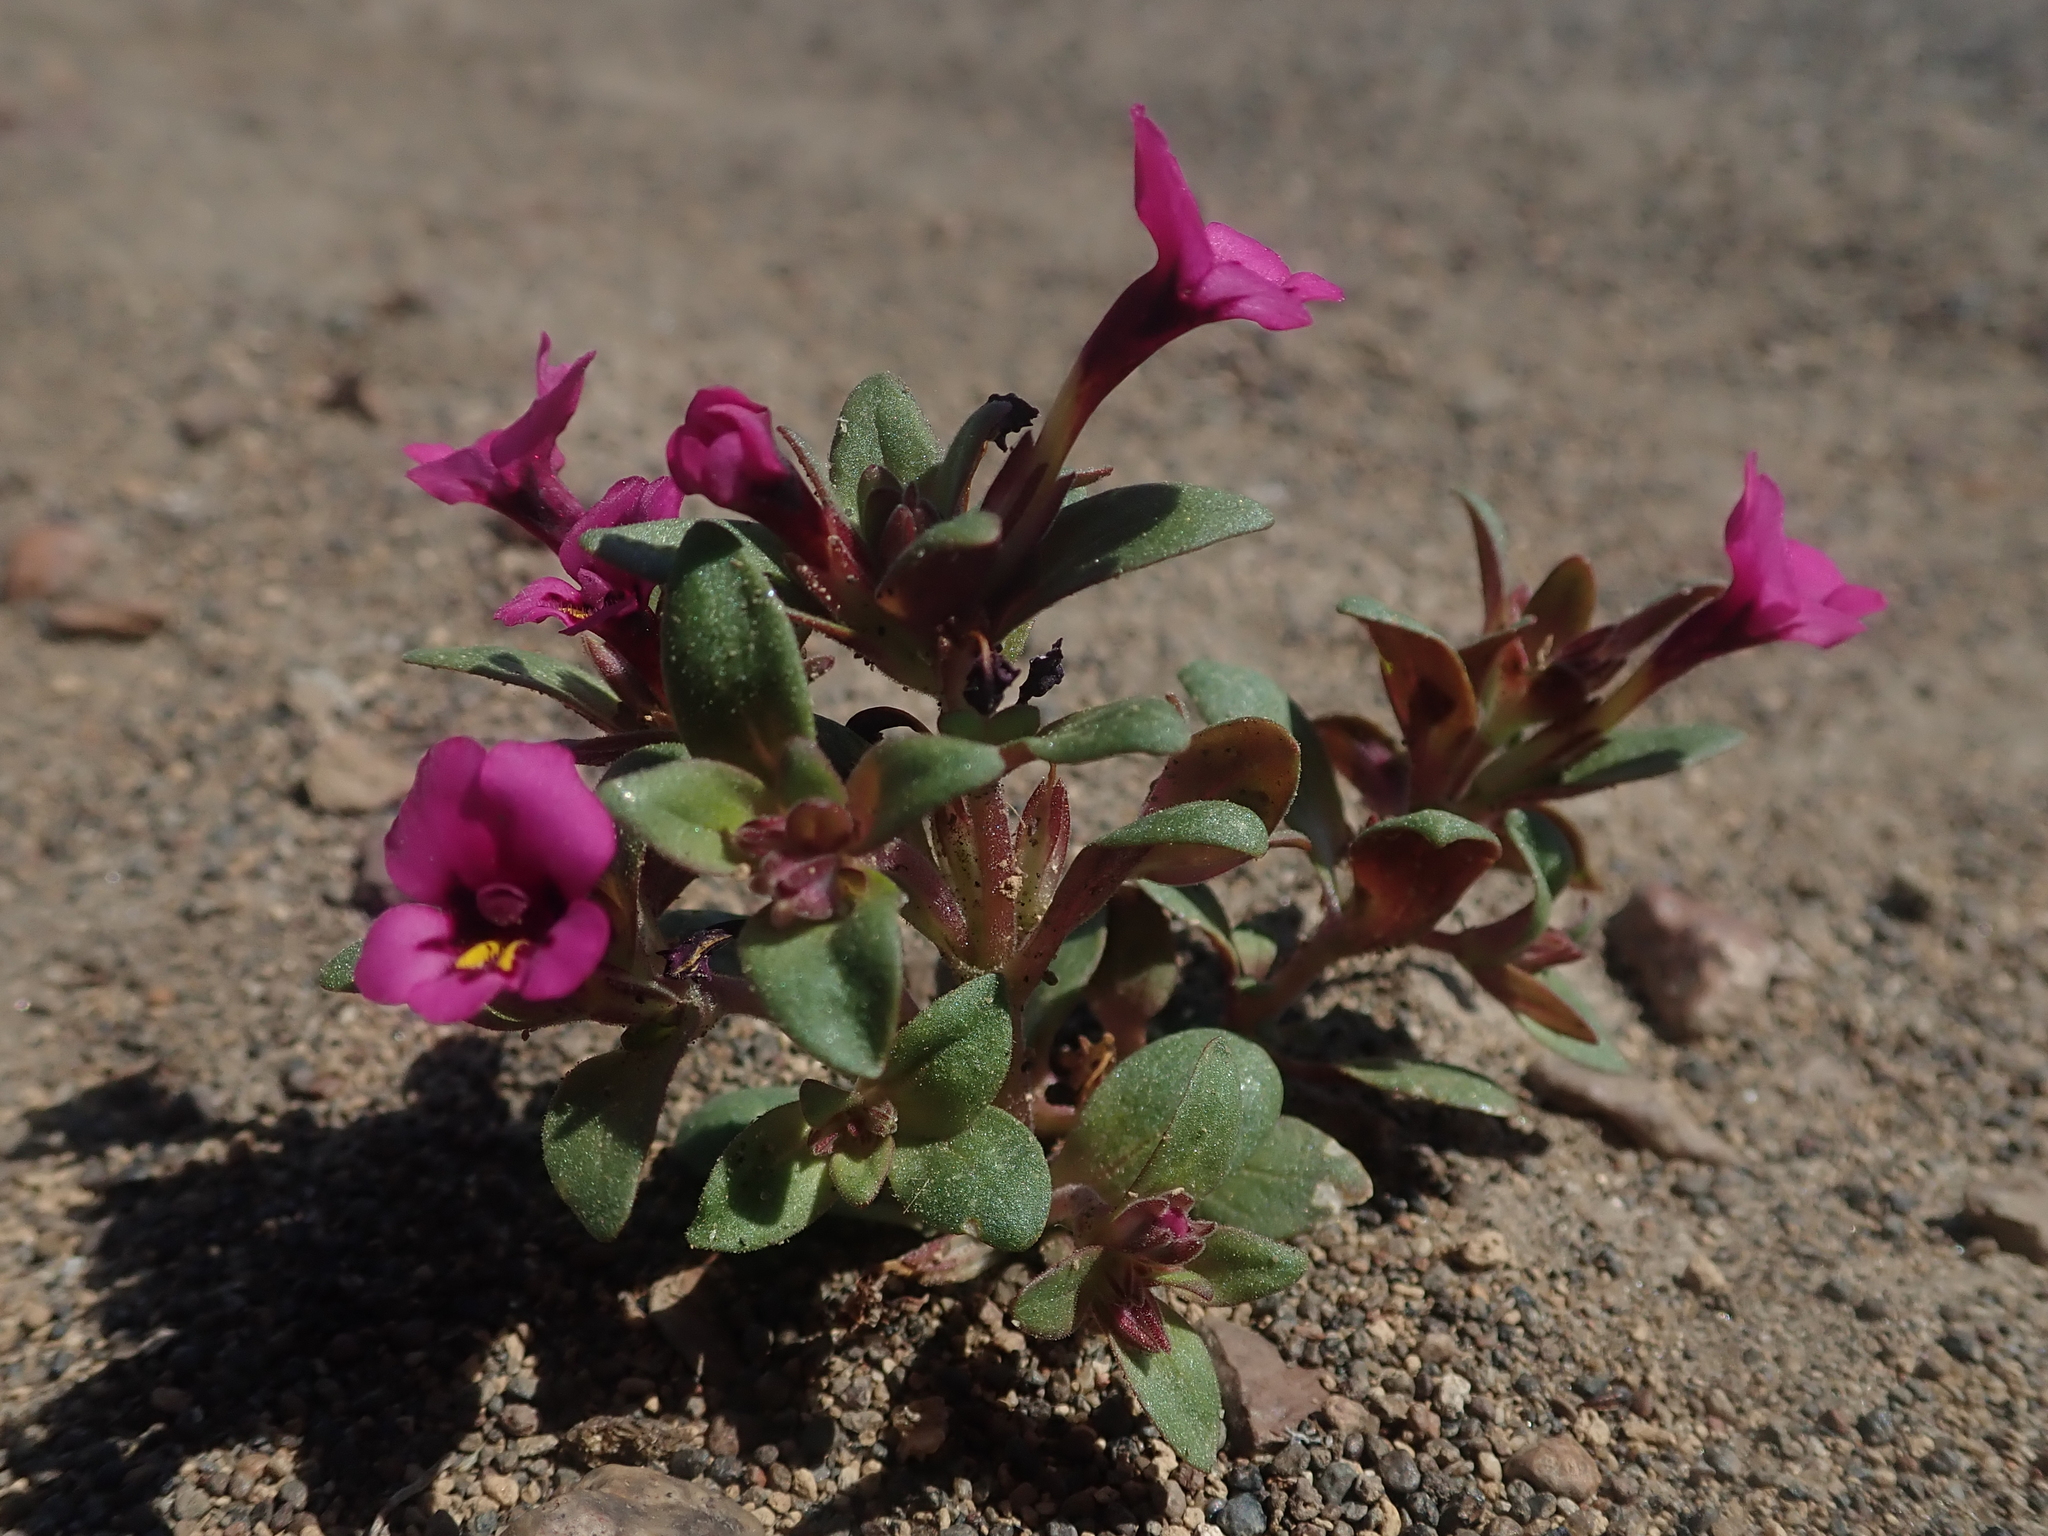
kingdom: Plantae
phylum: Tracheophyta
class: Magnoliopsida
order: Lamiales
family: Phrymaceae
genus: Diplacus
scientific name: Diplacus nanus
